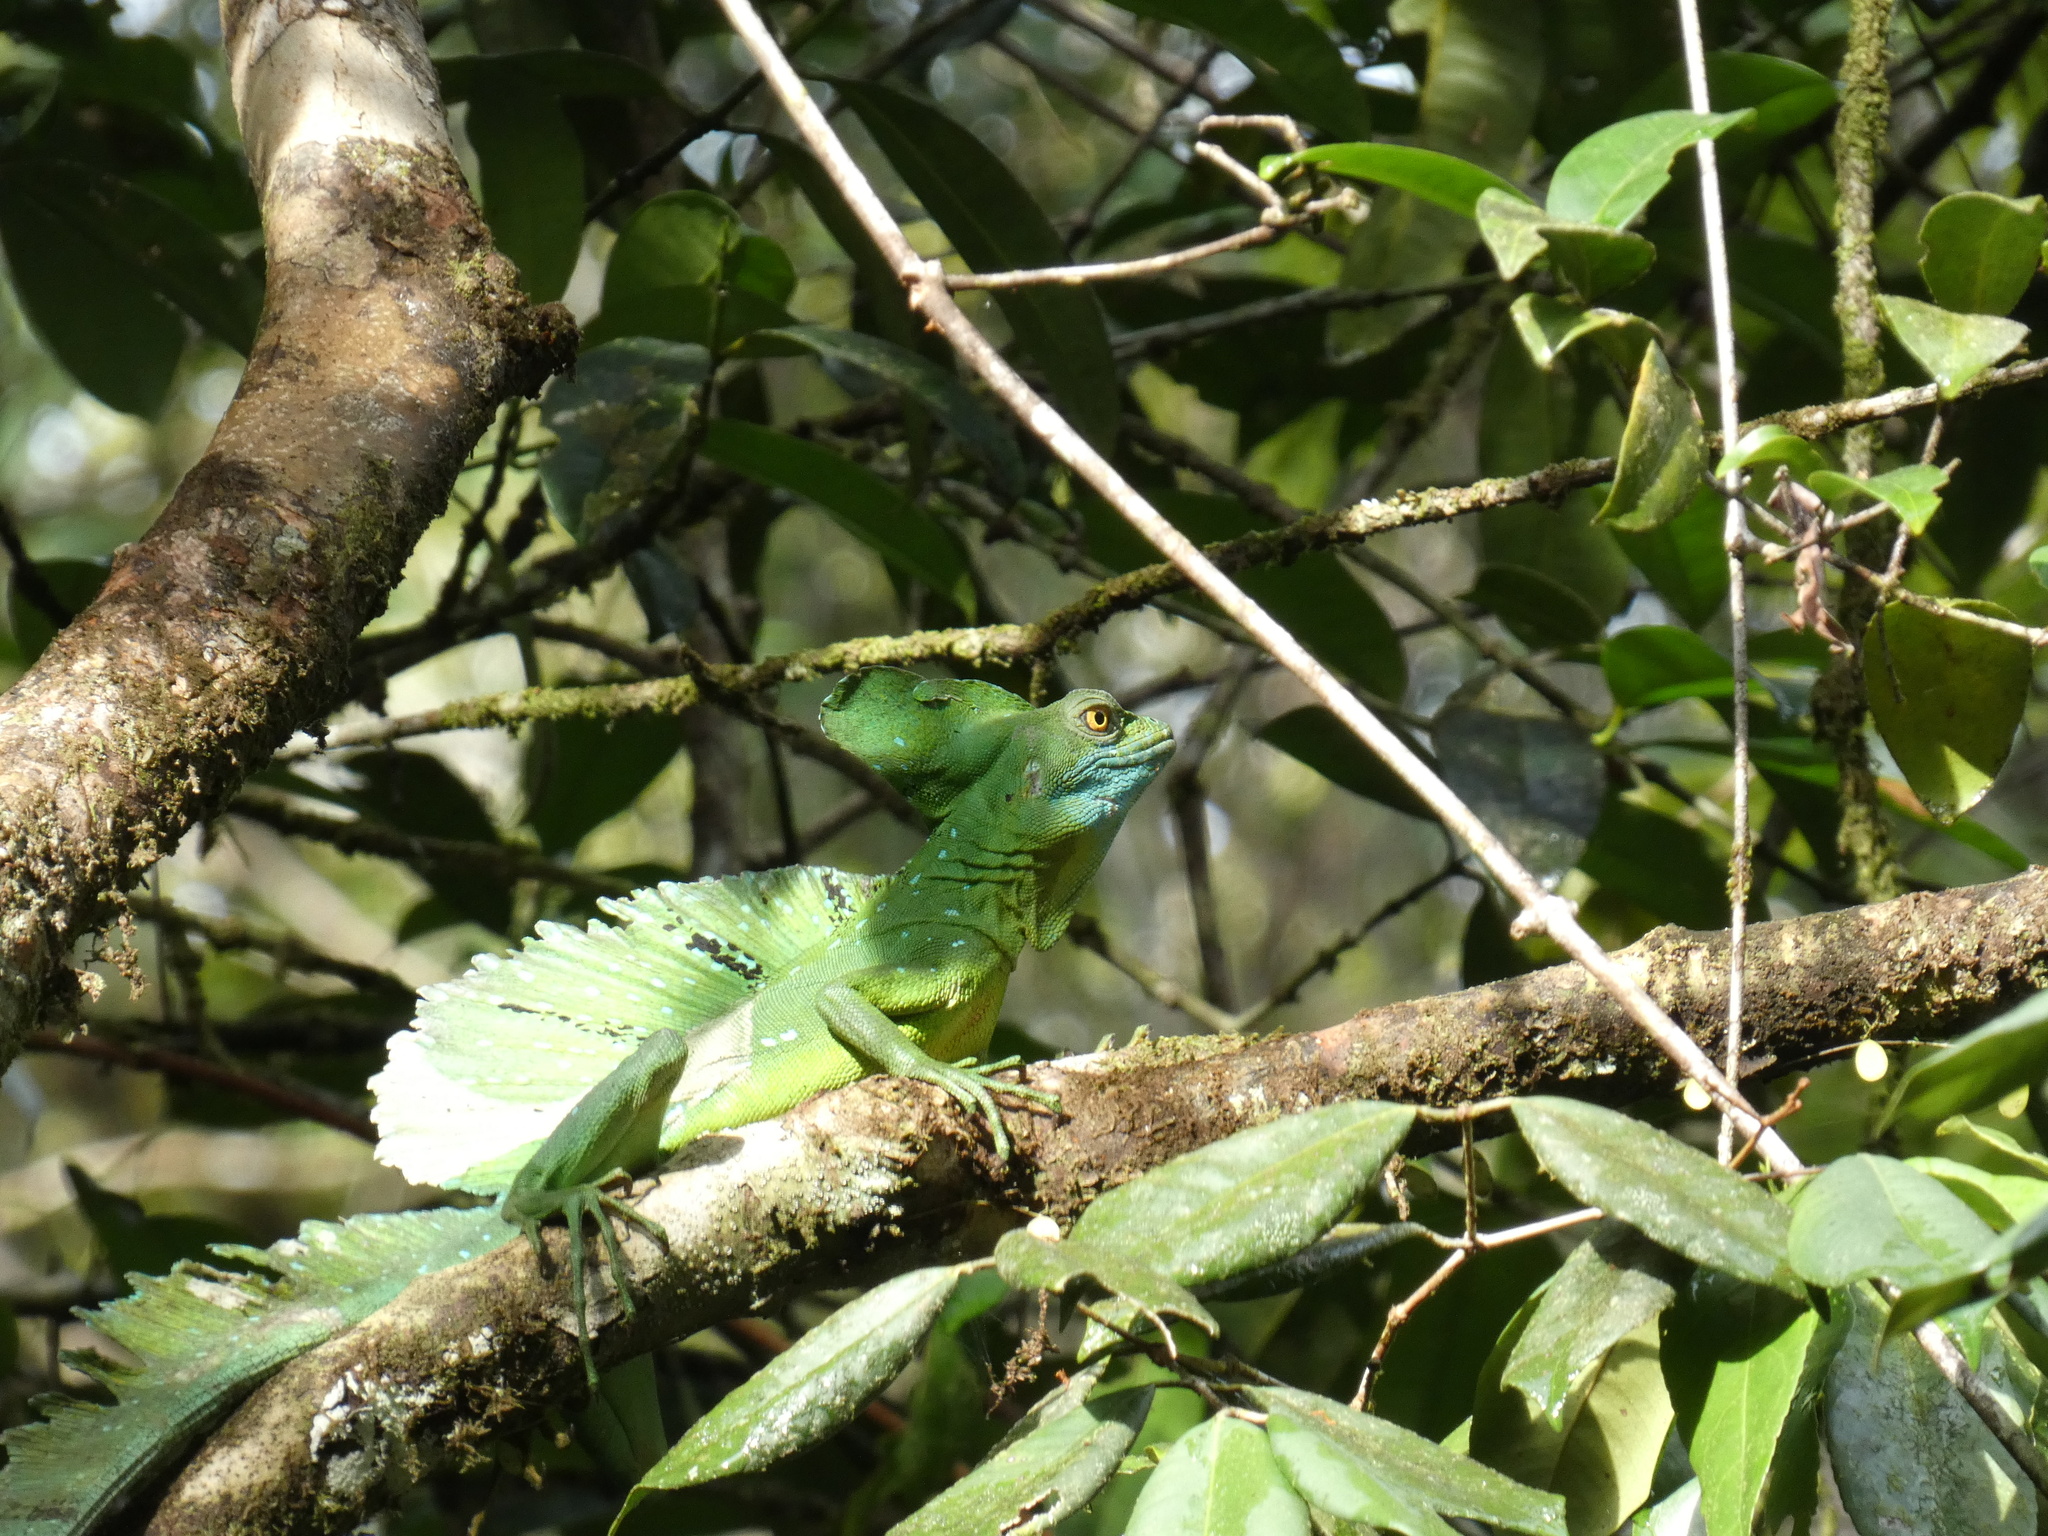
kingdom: Animalia
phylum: Chordata
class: Squamata
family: Corytophanidae
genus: Basiliscus
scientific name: Basiliscus plumifrons
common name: Green basilisk
